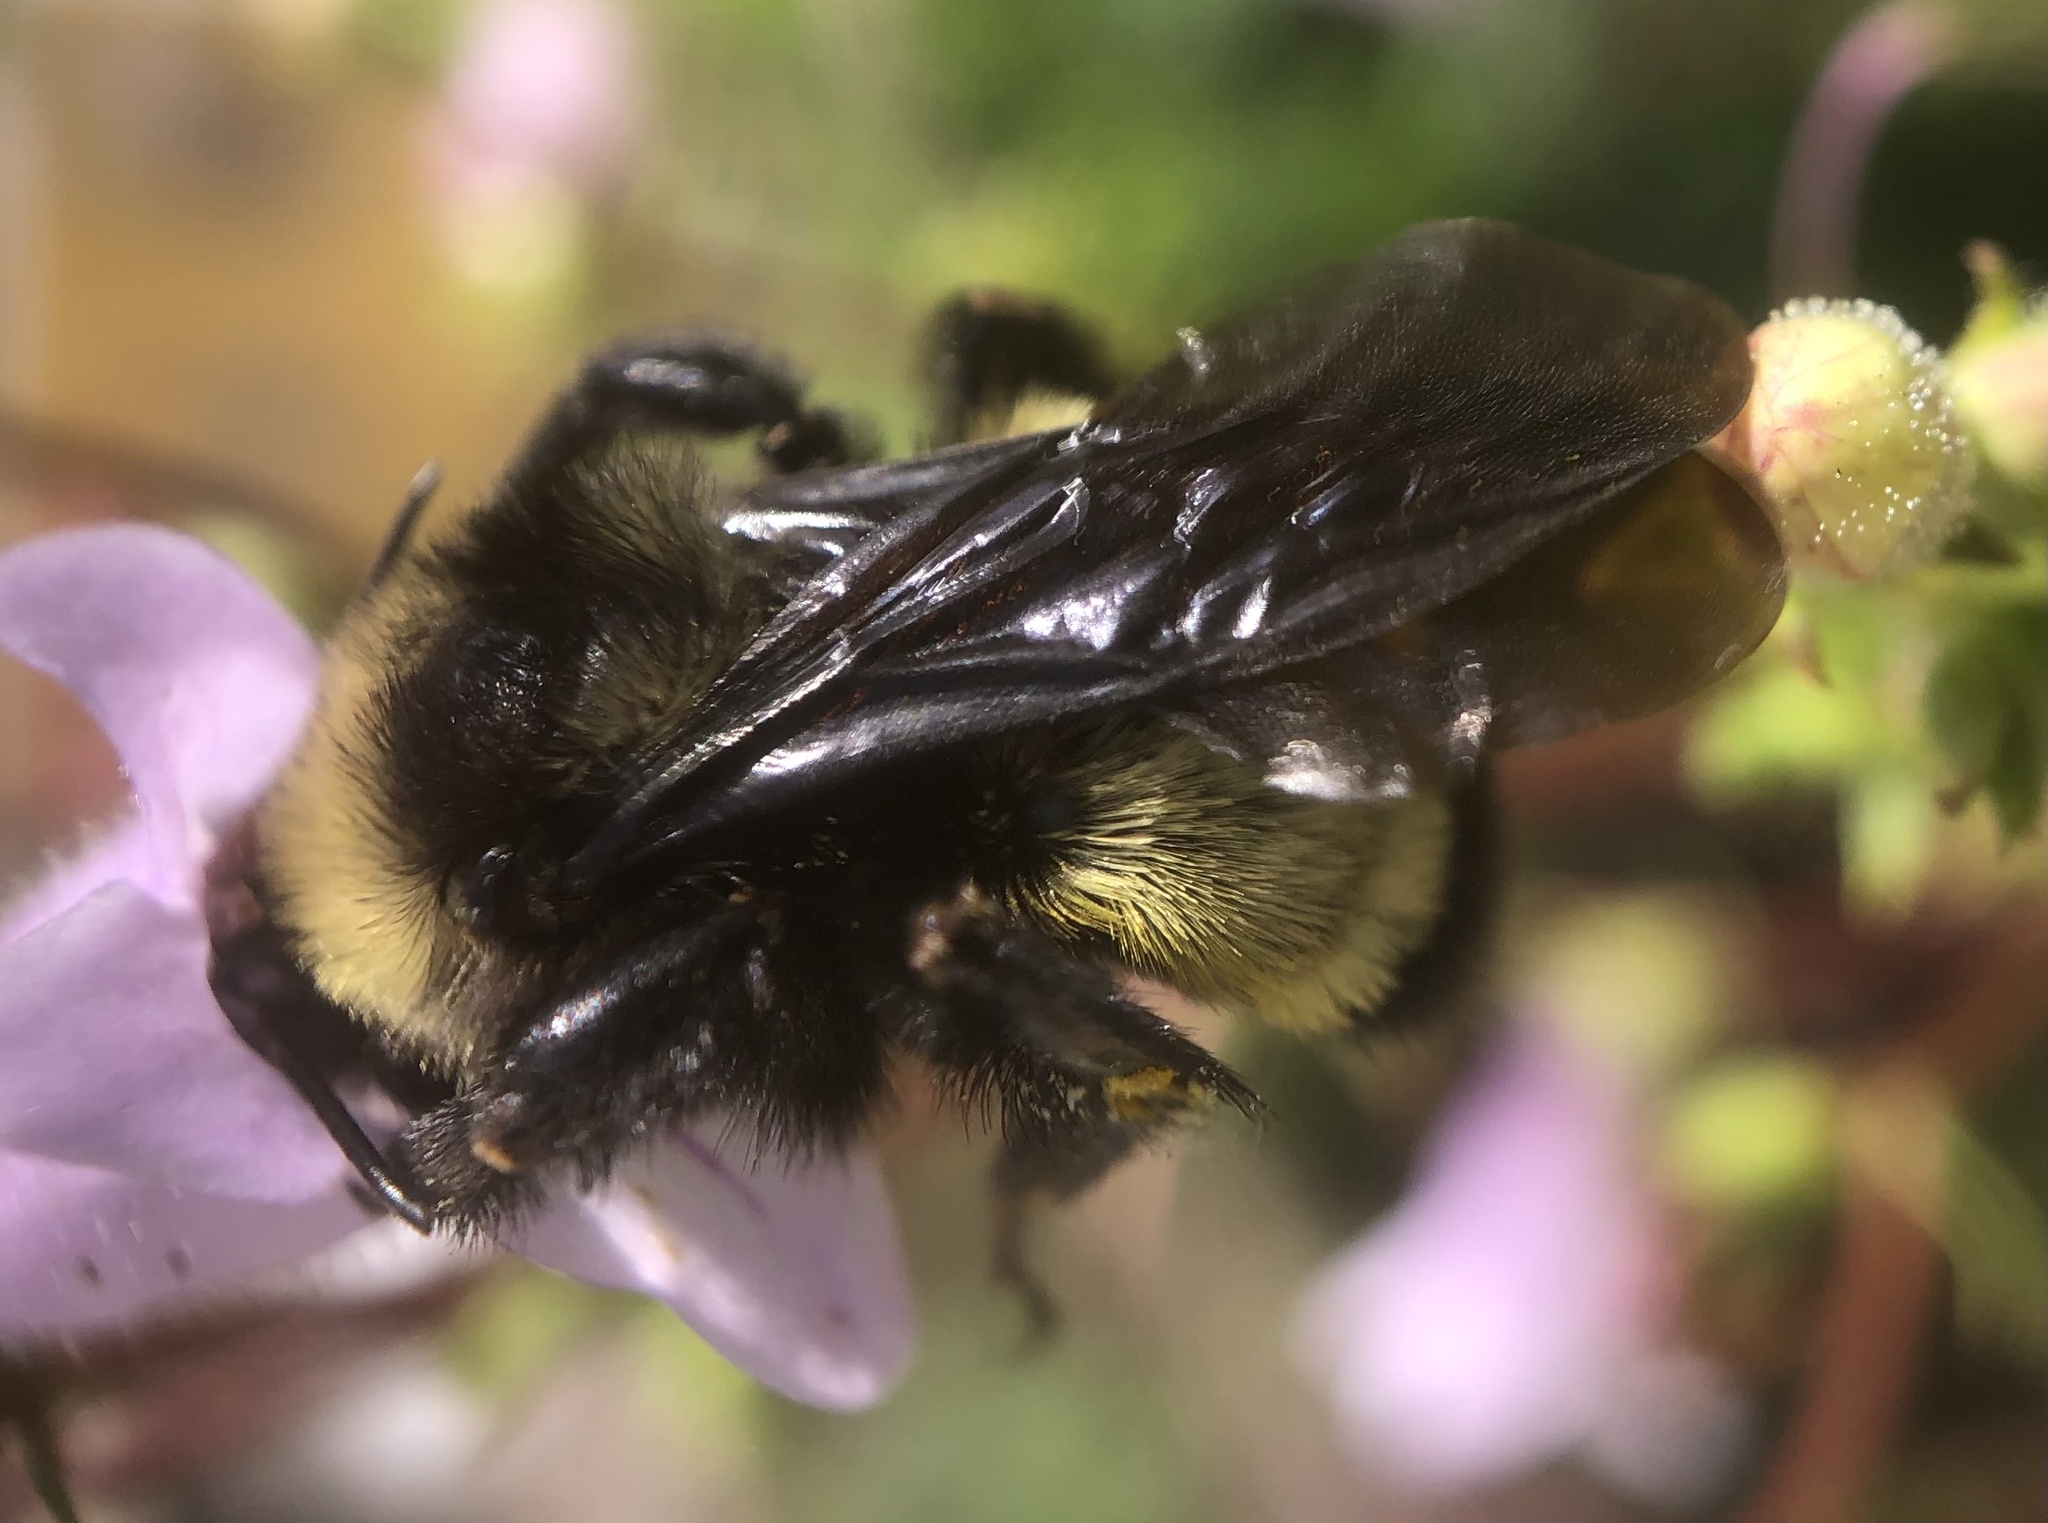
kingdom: Animalia
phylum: Arthropoda
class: Insecta
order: Hymenoptera
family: Apidae
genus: Bombus
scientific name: Bombus pensylvanicus
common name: Bumble bee
